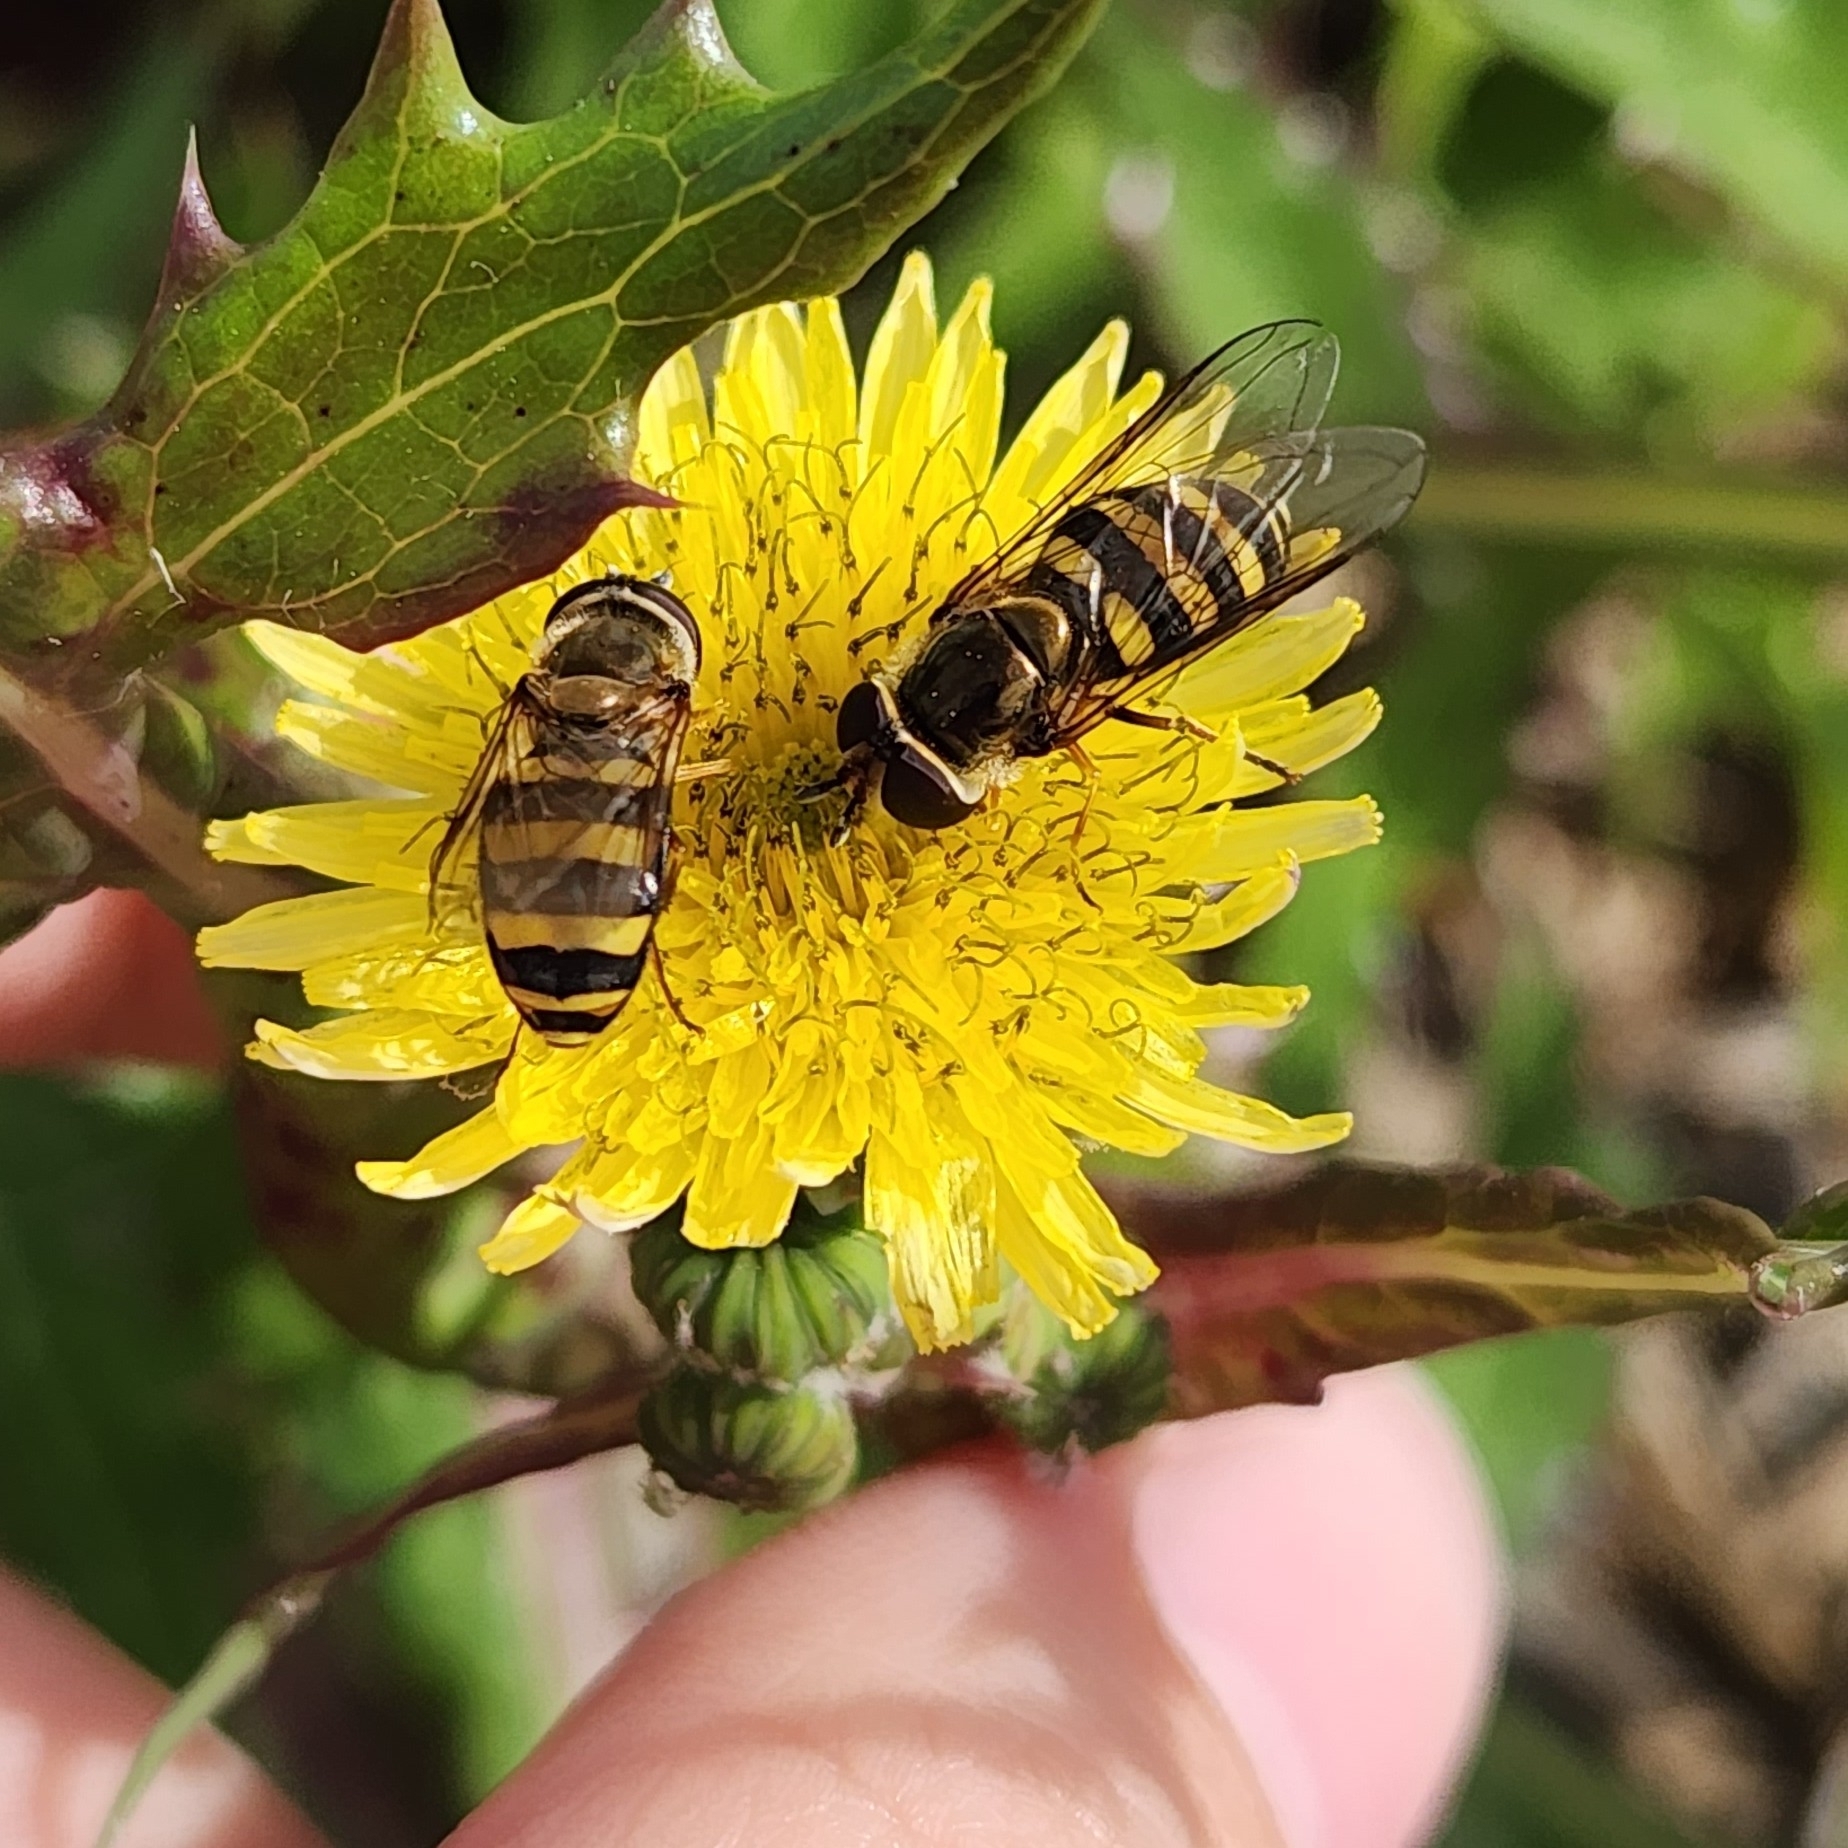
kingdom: Animalia
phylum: Arthropoda
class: Insecta
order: Diptera
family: Syrphidae
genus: Eupeodes
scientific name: Eupeodes
